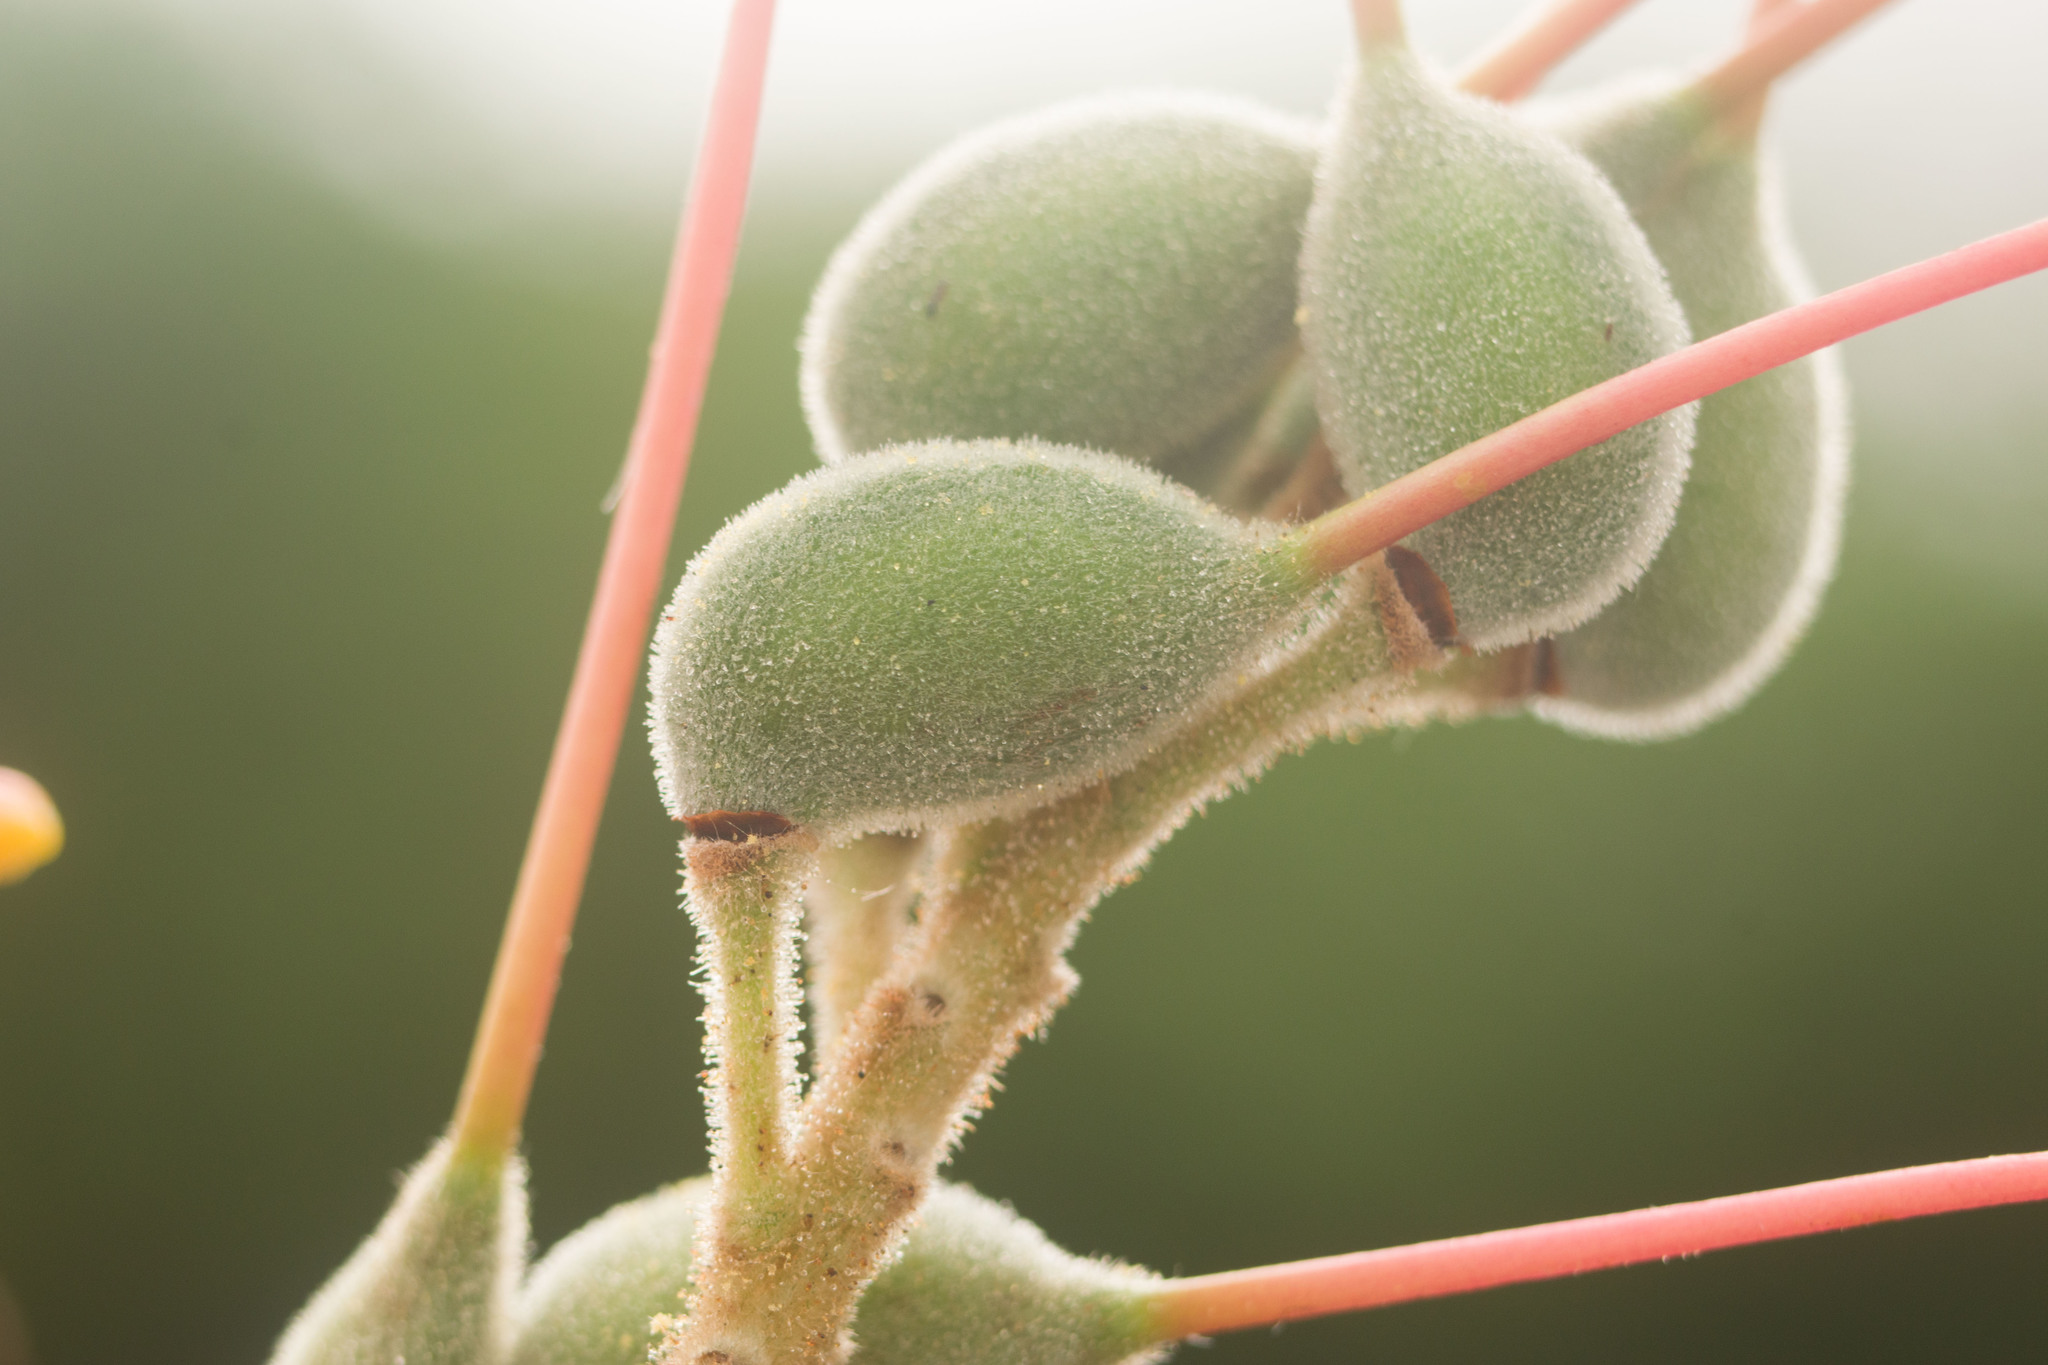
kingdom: Plantae
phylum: Tracheophyta
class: Magnoliopsida
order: Proteales
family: Proteaceae
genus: Grevillea
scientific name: Grevillea banksii
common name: Kahili flower
